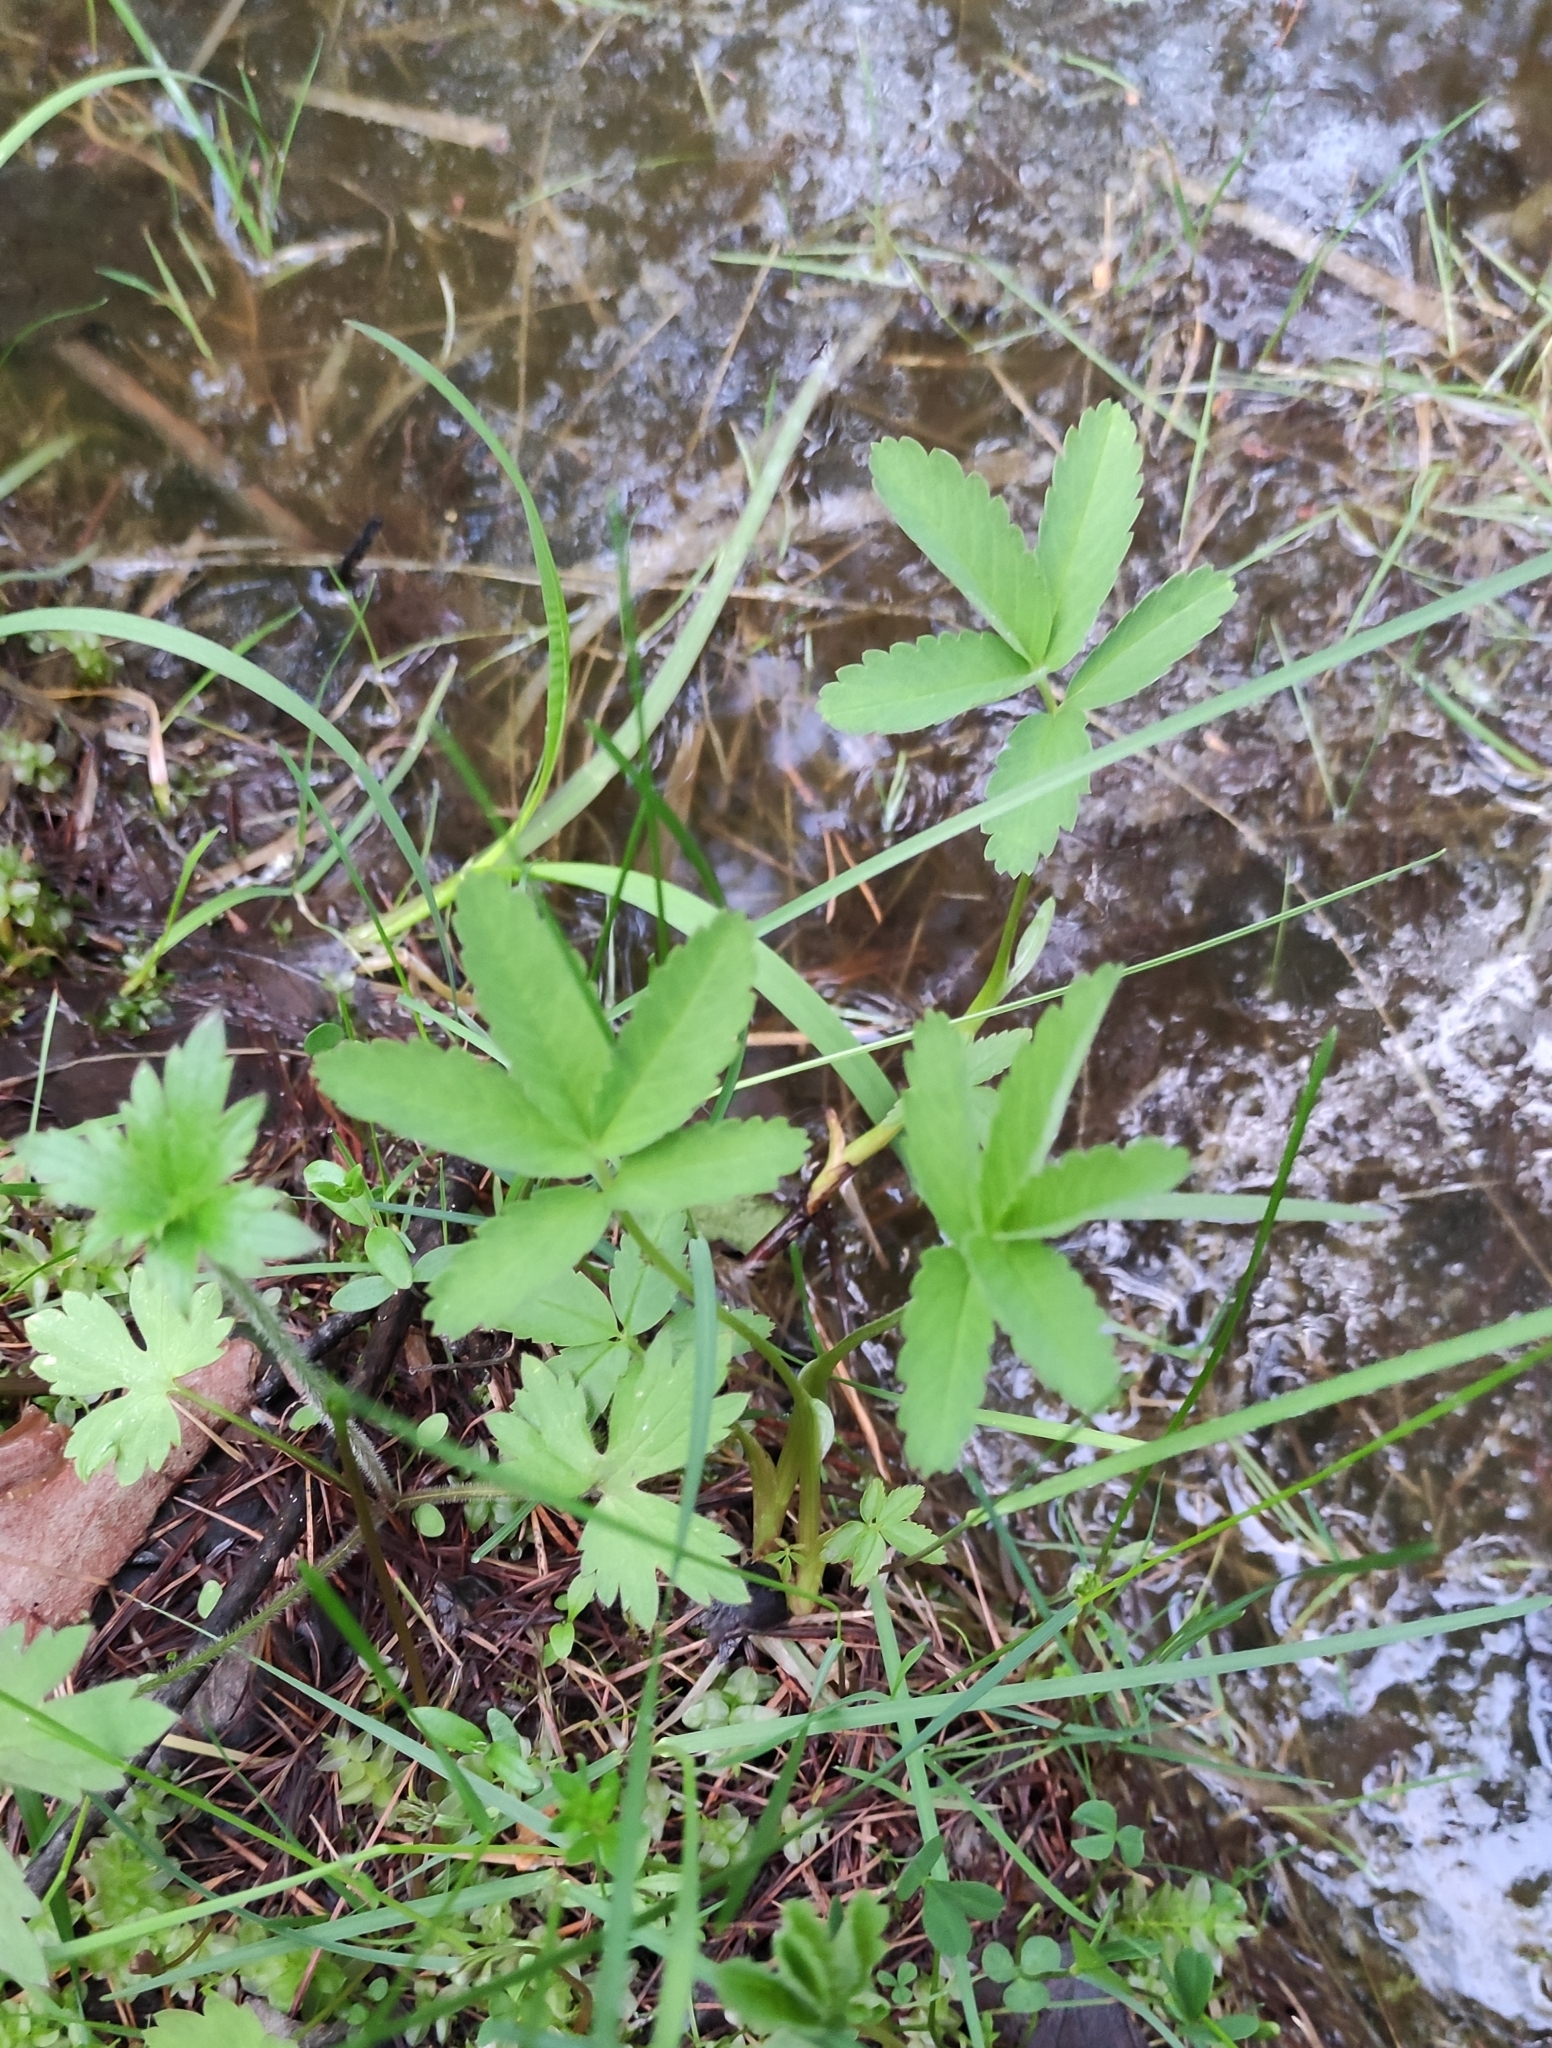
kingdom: Plantae
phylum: Tracheophyta
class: Magnoliopsida
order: Rosales
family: Rosaceae
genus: Comarum
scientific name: Comarum palustre
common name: Marsh cinquefoil
